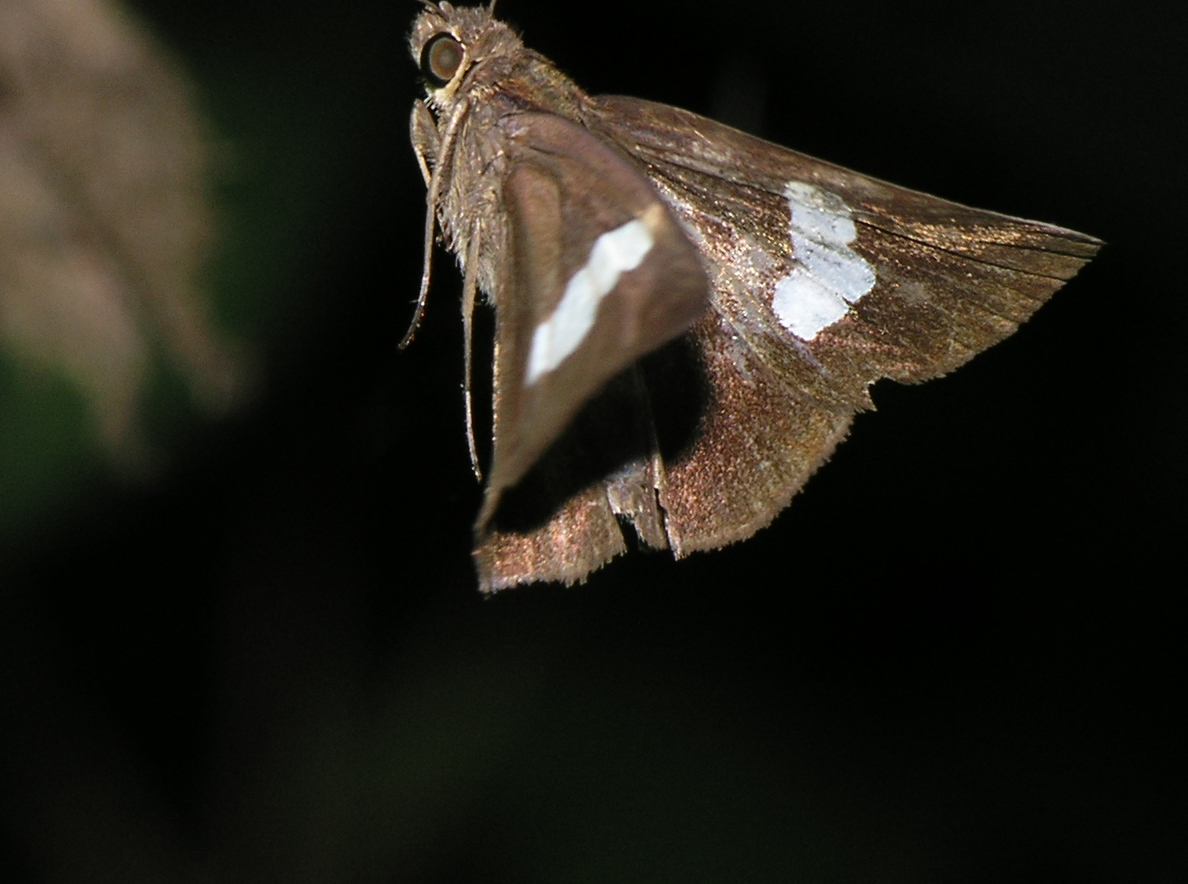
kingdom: Animalia
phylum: Arthropoda
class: Insecta
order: Lepidoptera
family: Hesperiidae
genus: Notocrypta
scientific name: Notocrypta paralysos
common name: Common banded demon
